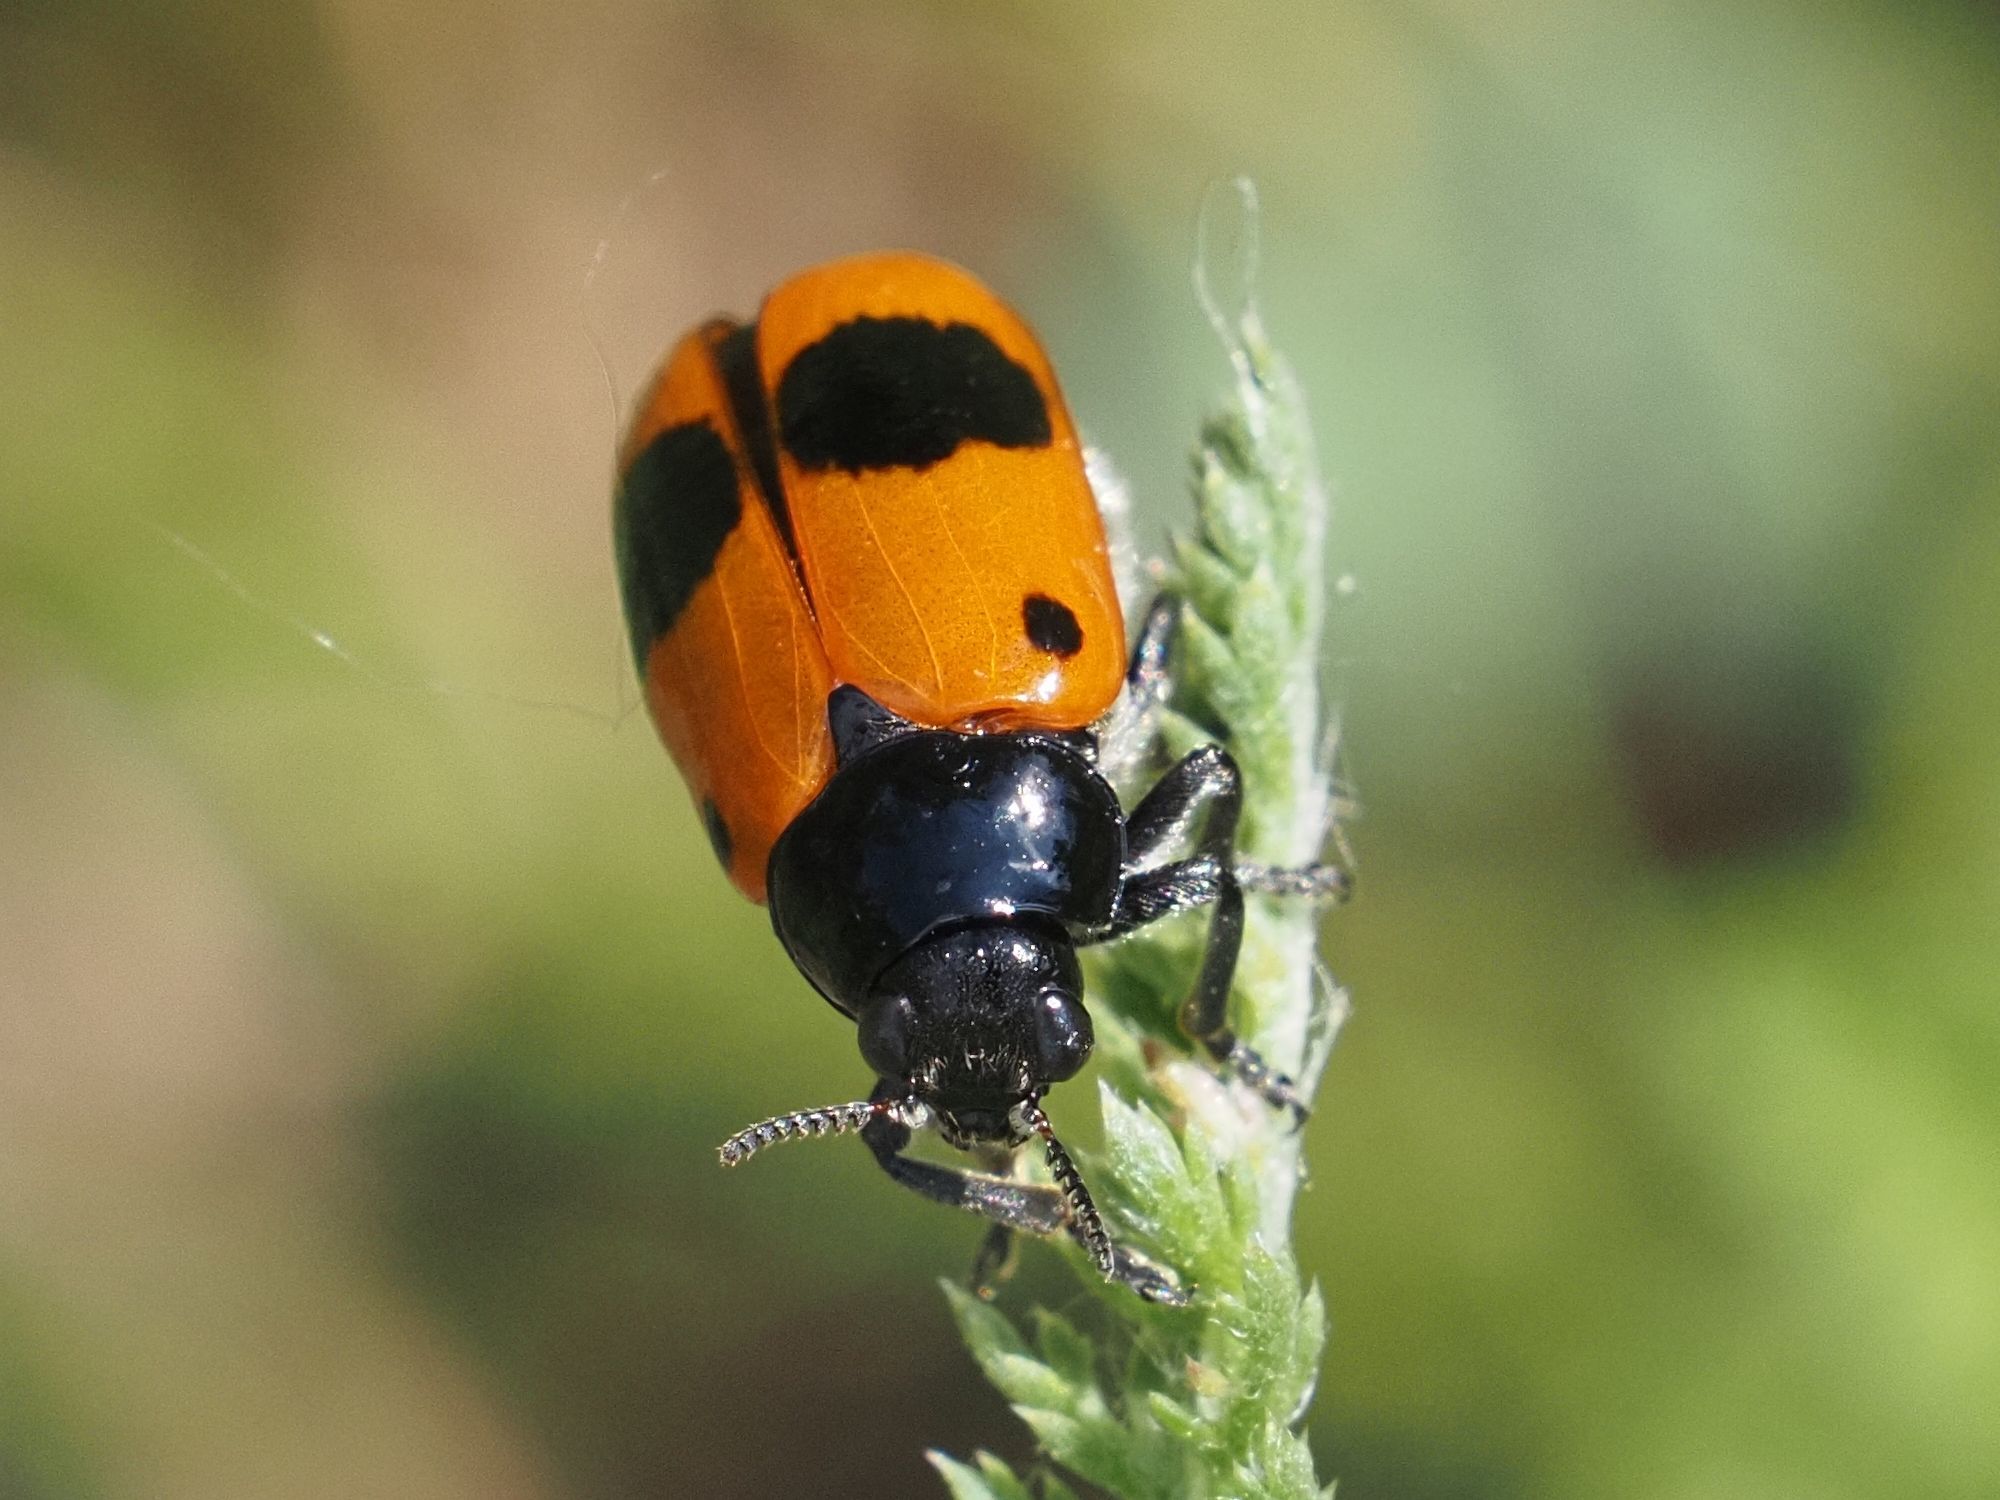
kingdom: Animalia
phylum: Arthropoda
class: Insecta
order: Coleoptera
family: Chrysomelidae
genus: Clytra
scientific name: Clytra laeviuscula
